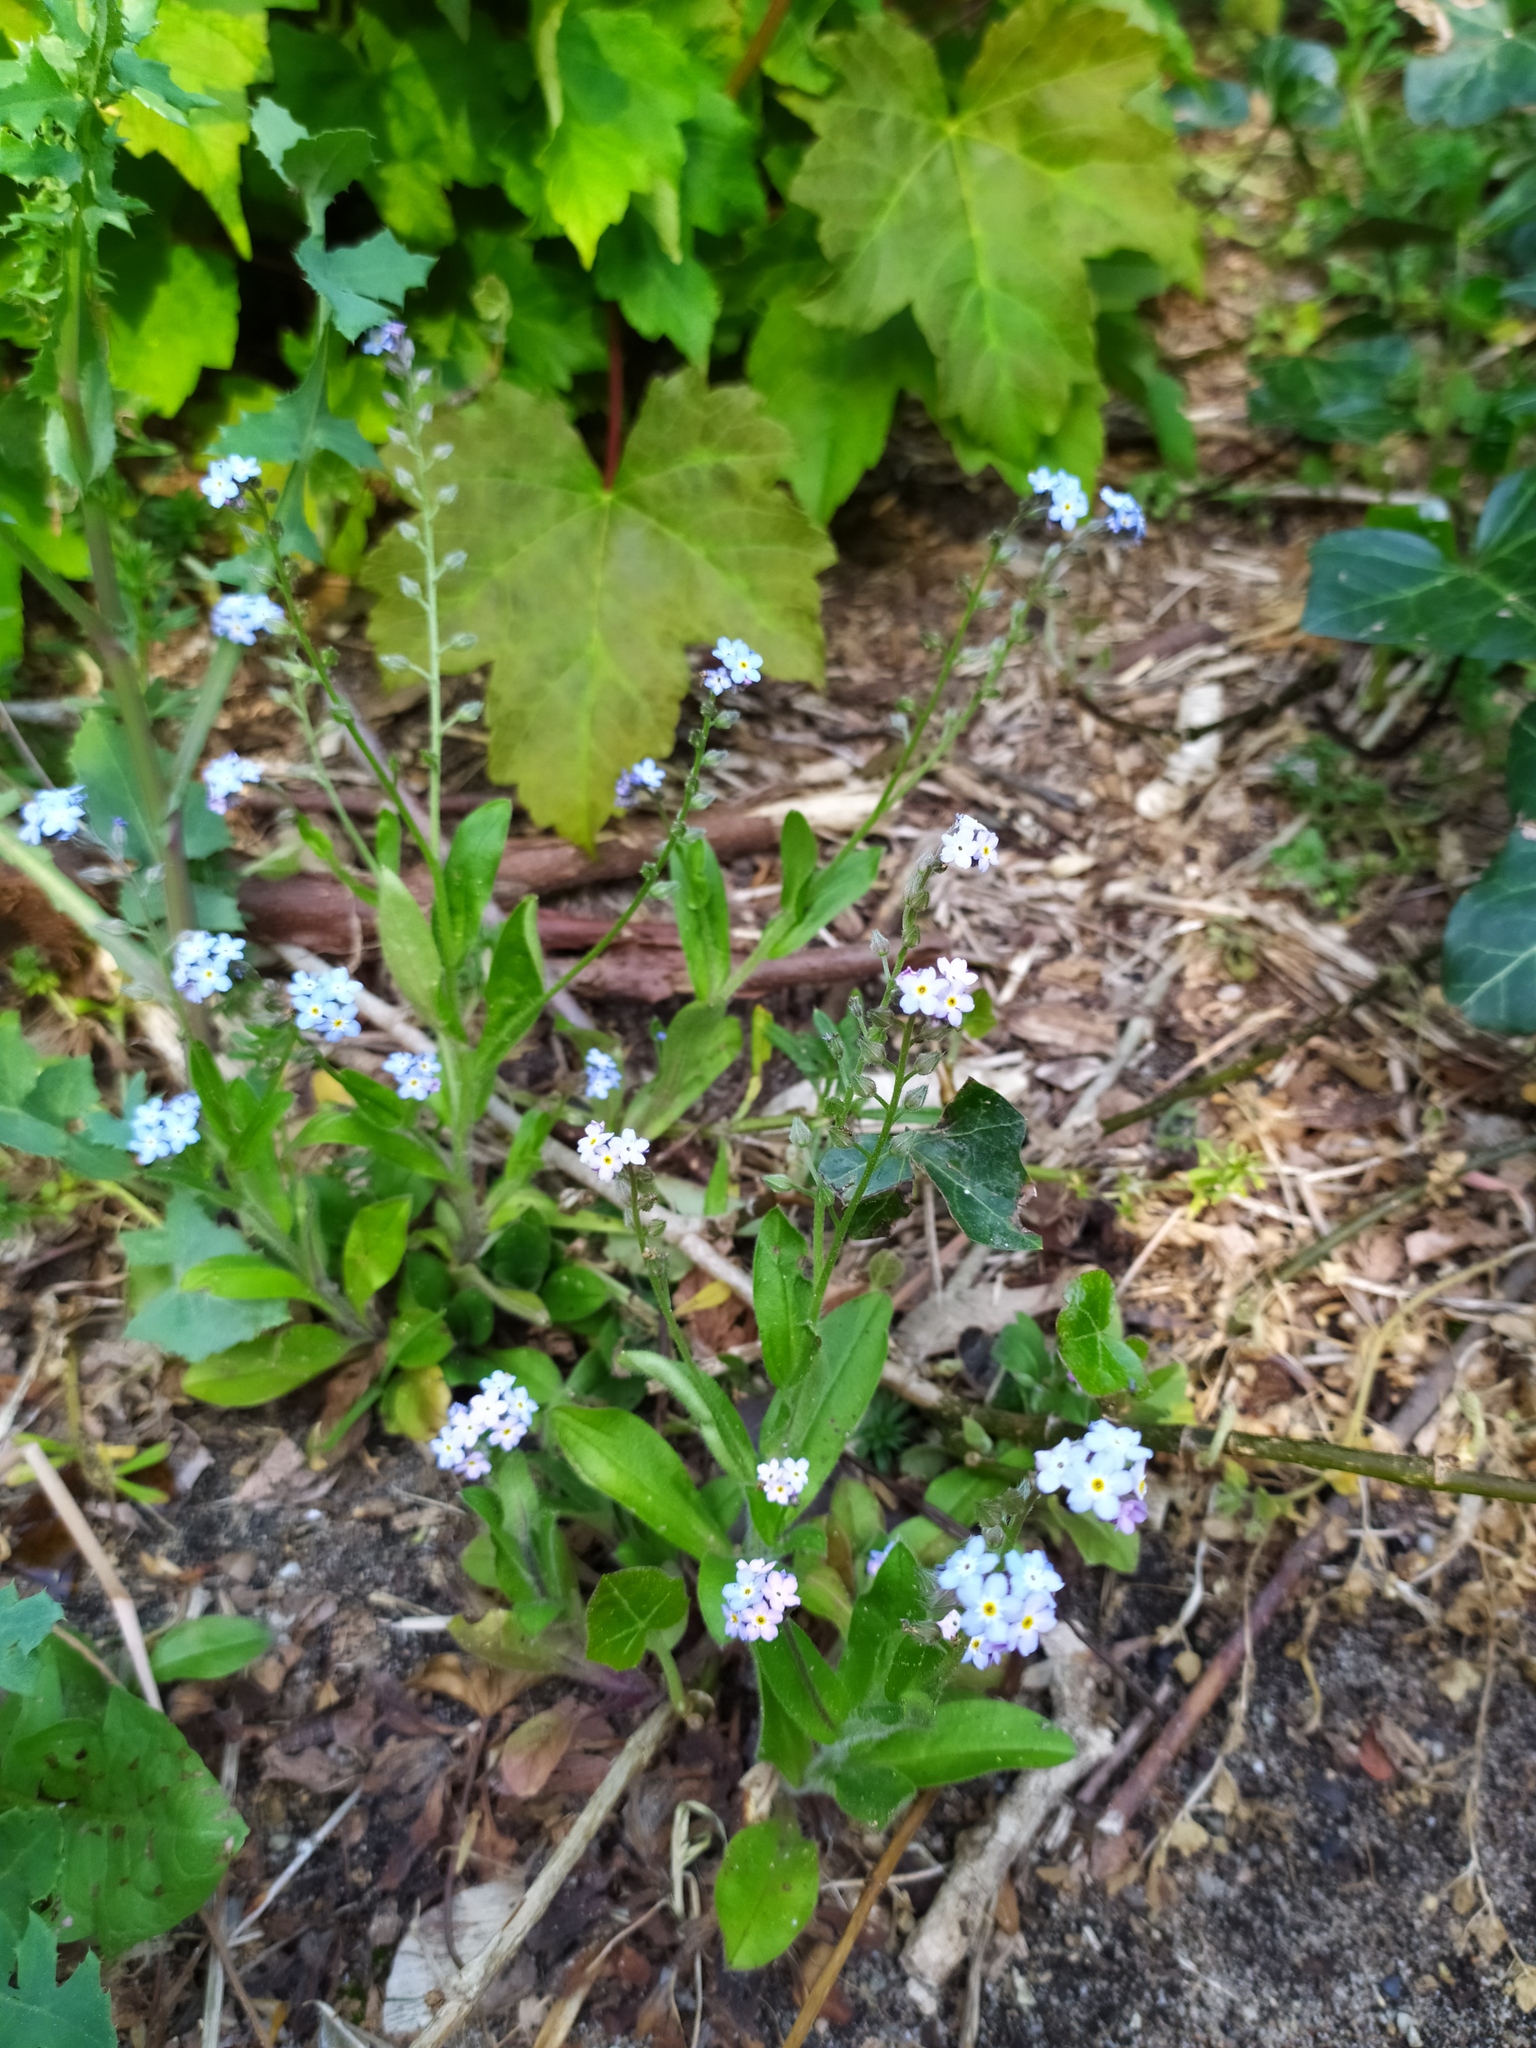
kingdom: Plantae
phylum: Tracheophyta
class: Magnoliopsida
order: Boraginales
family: Boraginaceae
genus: Myosotis
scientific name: Myosotis sylvatica
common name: Wood forget-me-not
